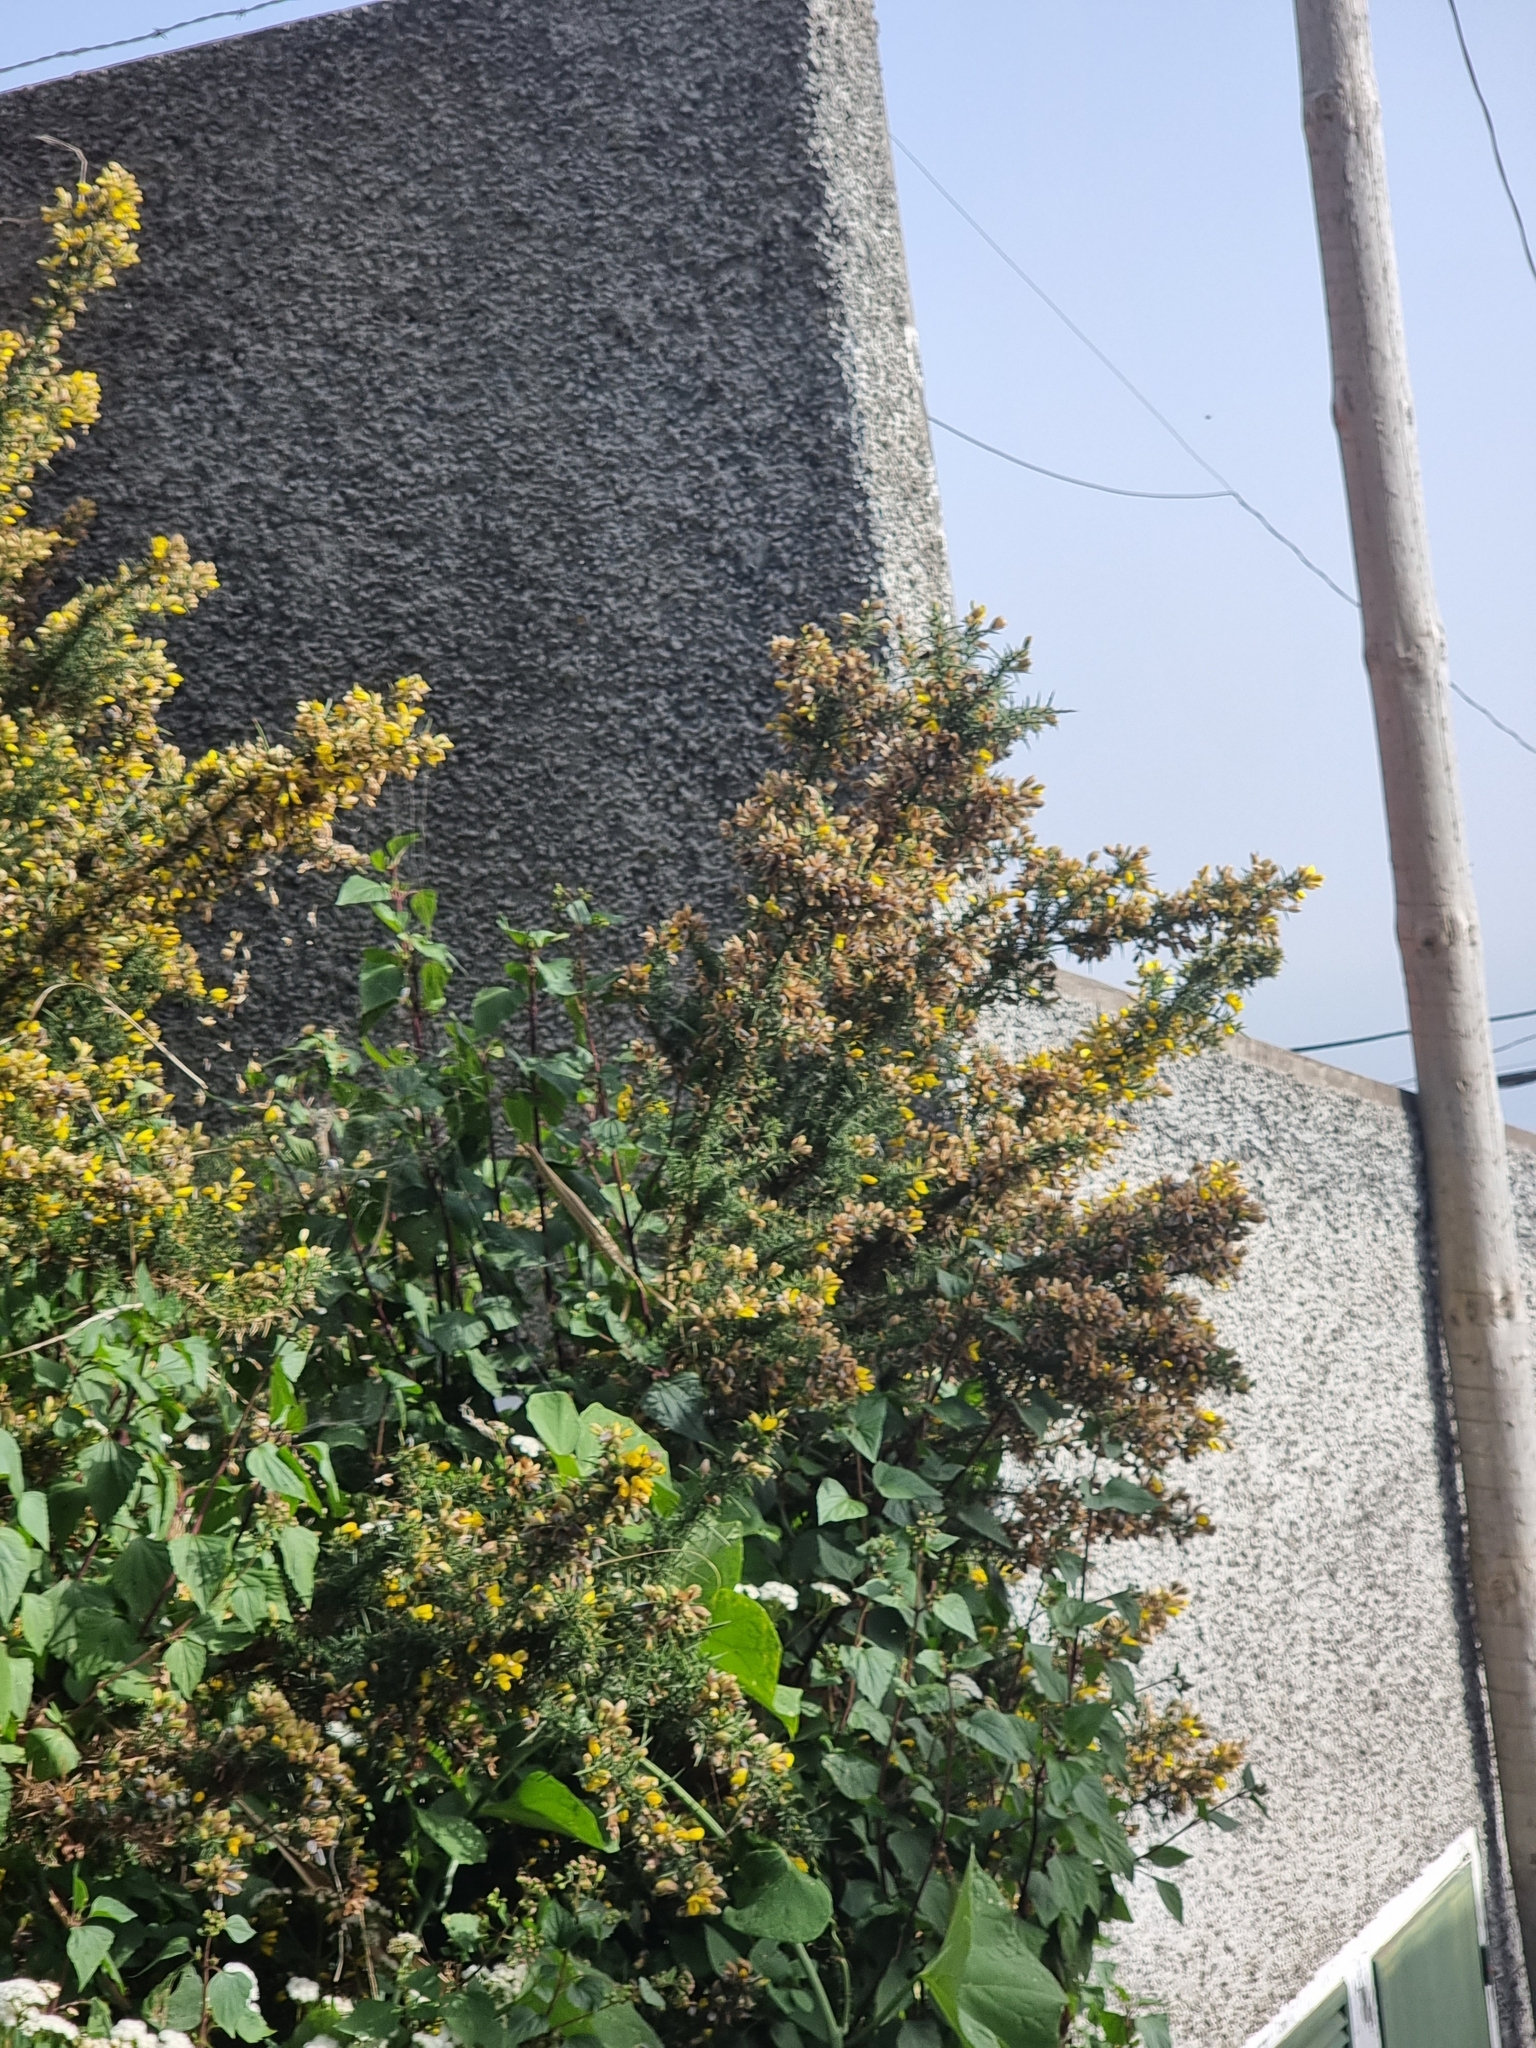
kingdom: Plantae
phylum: Tracheophyta
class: Magnoliopsida
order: Fabales
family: Fabaceae
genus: Ulex
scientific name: Ulex europaeus
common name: Common gorse
